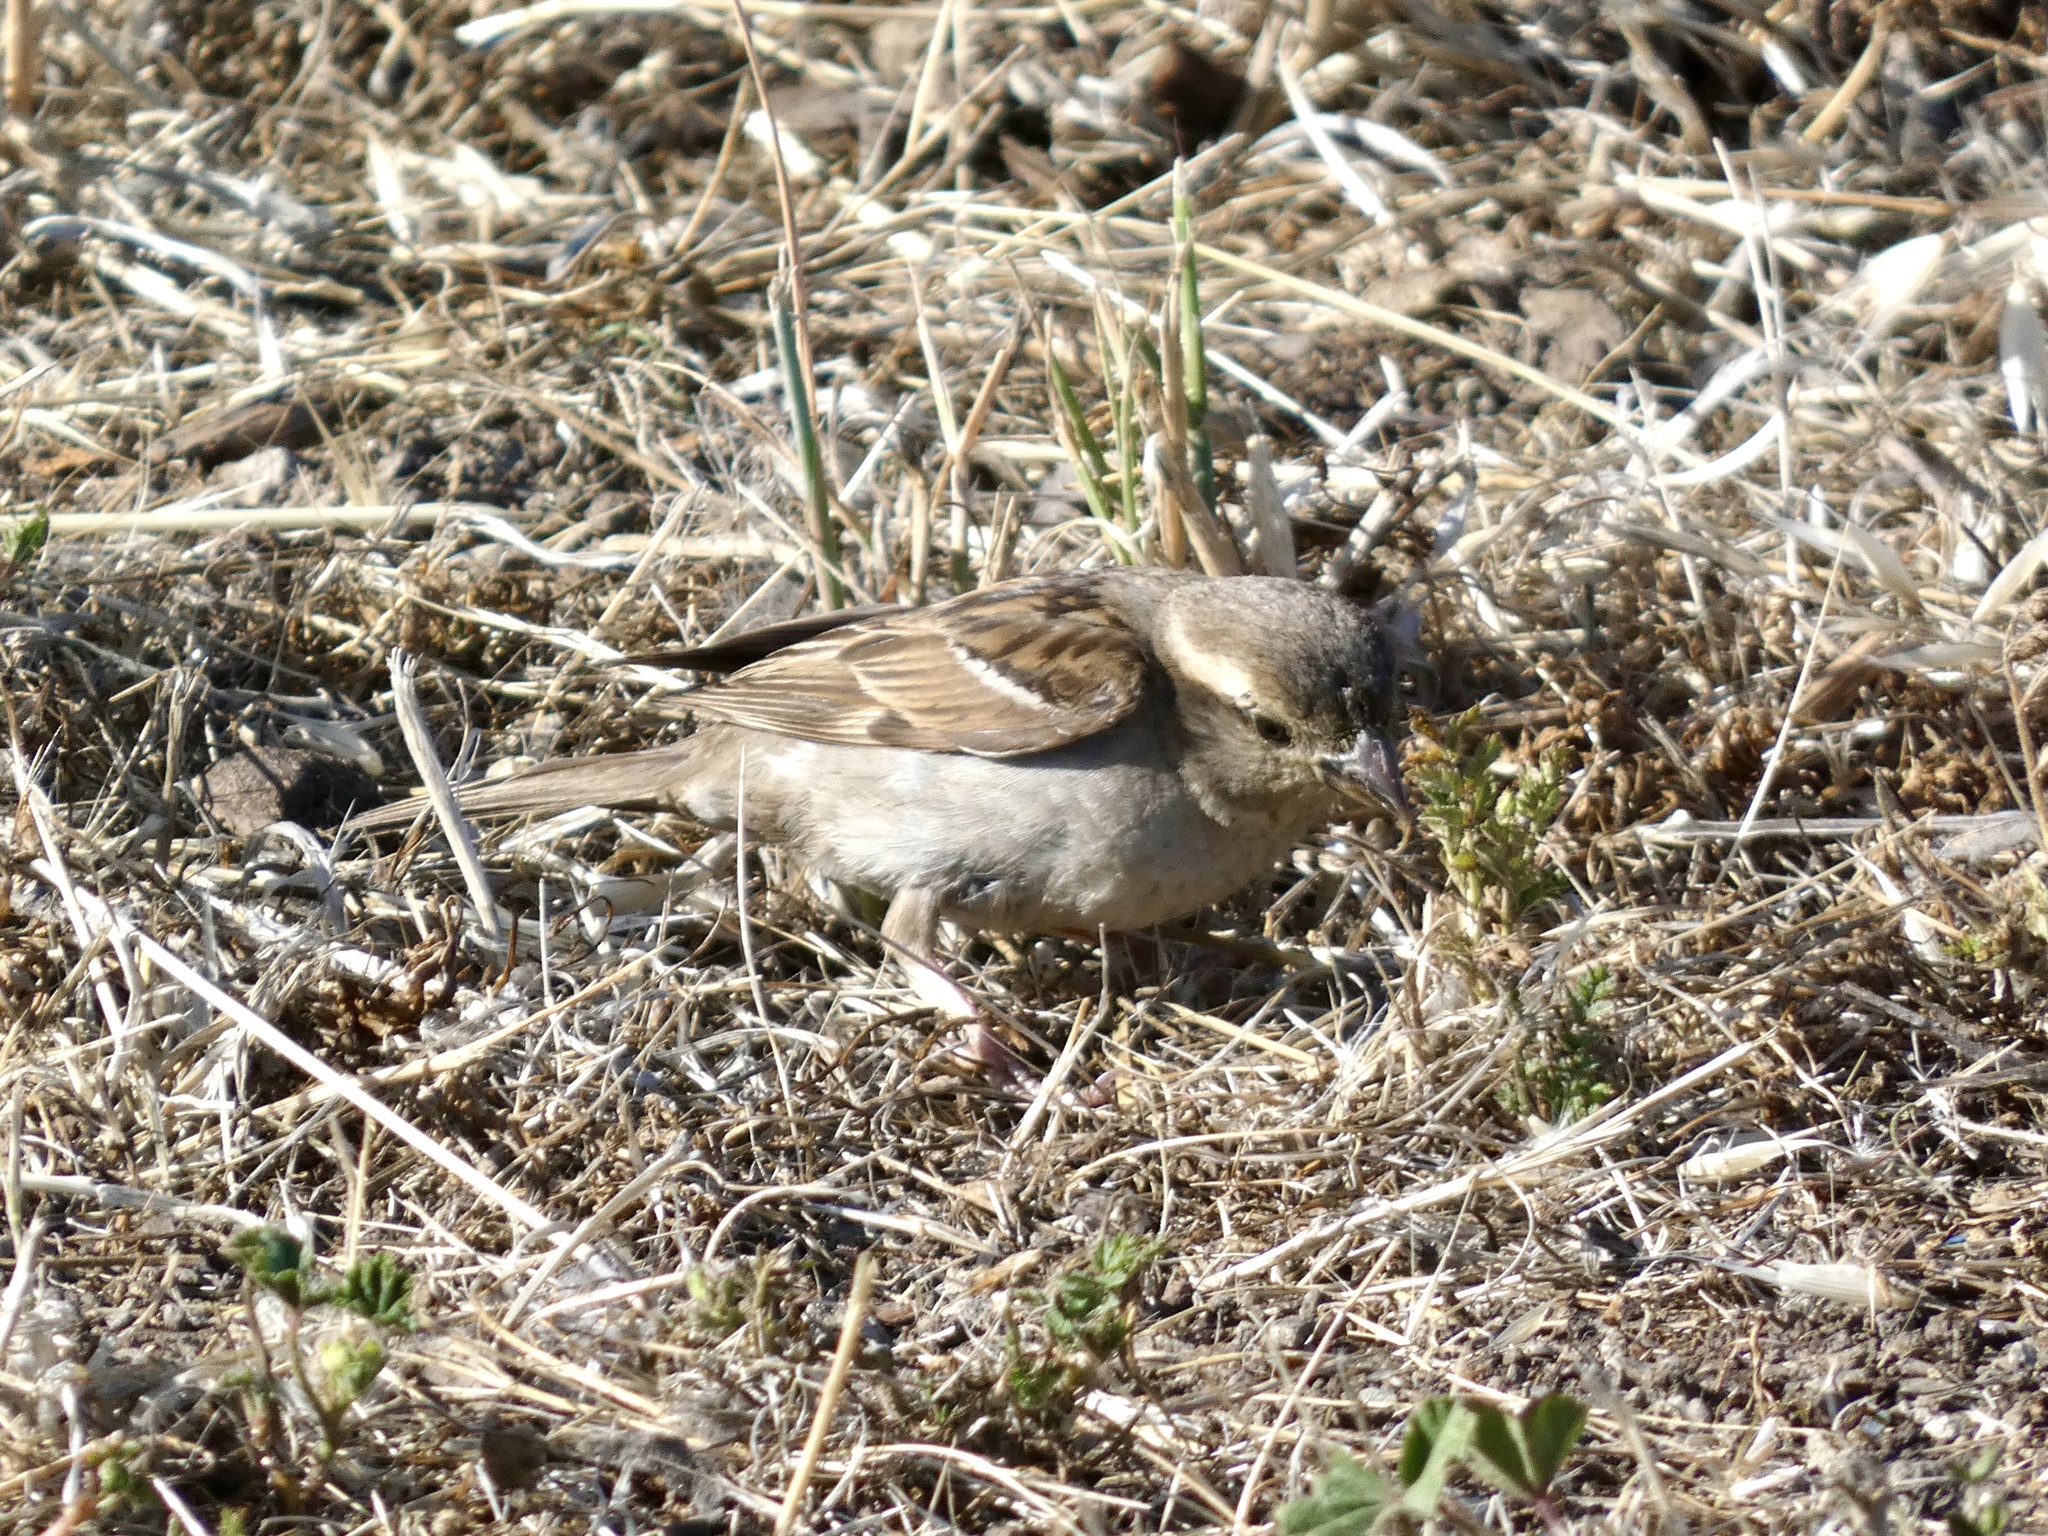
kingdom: Animalia
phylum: Chordata
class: Aves
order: Passeriformes
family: Passeridae
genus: Passer
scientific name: Passer domesticus
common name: House sparrow
